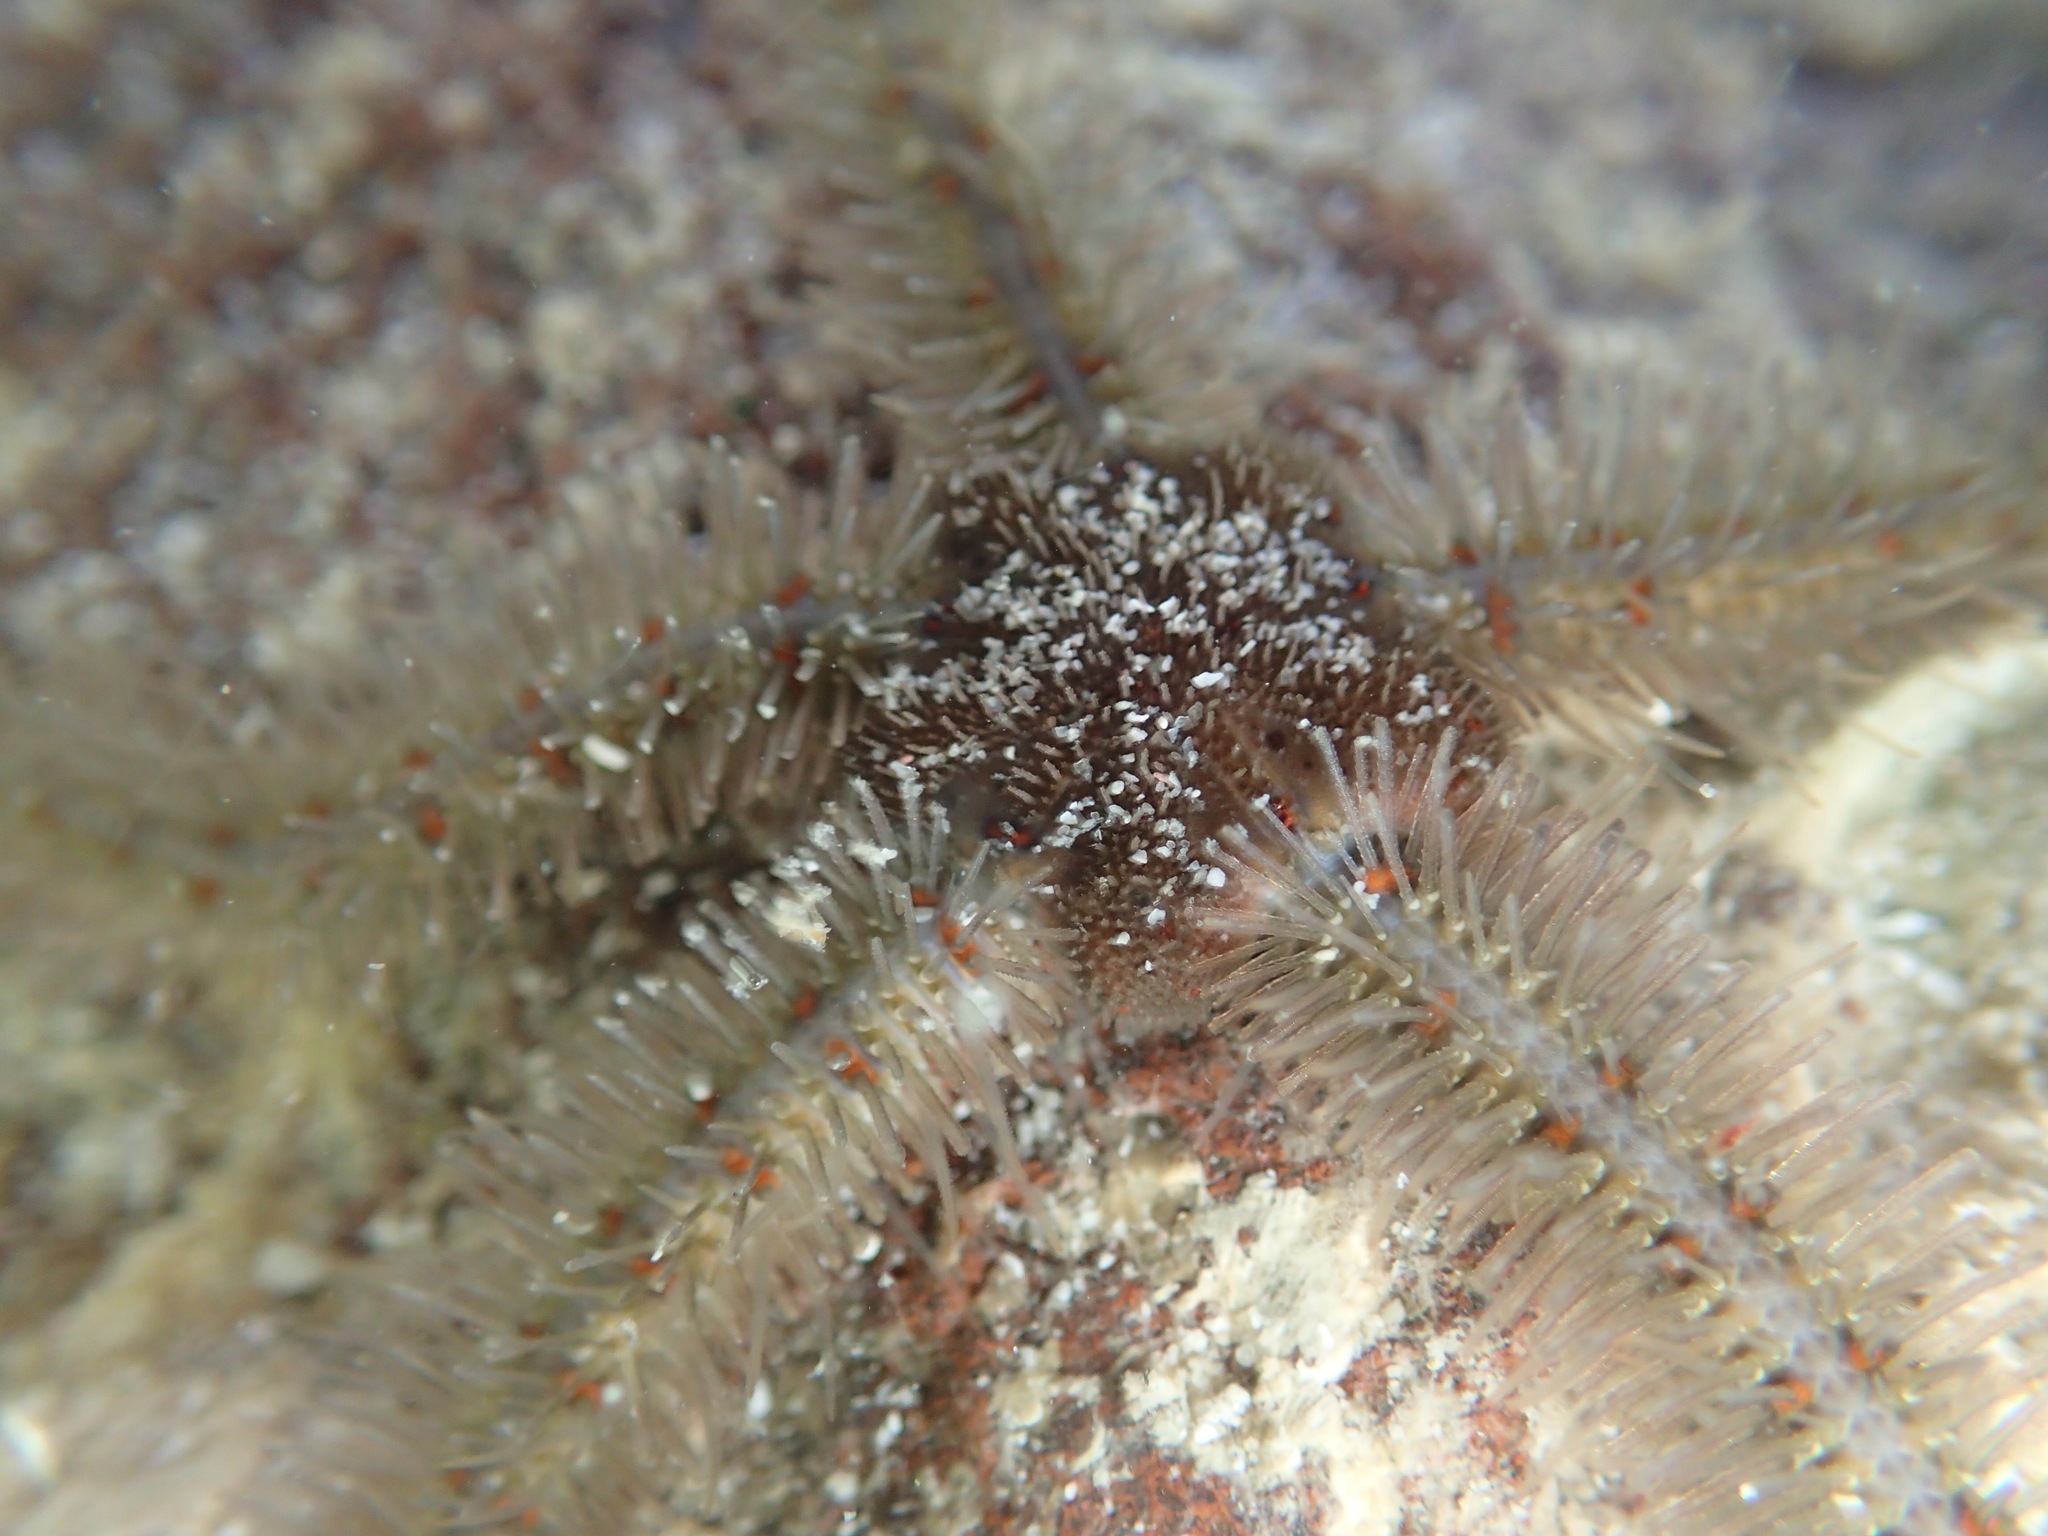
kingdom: Animalia
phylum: Echinodermata
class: Ophiuroidea
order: Amphilepidida
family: Ophiotrichidae
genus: Ophiothrix
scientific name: Ophiothrix spiculata
